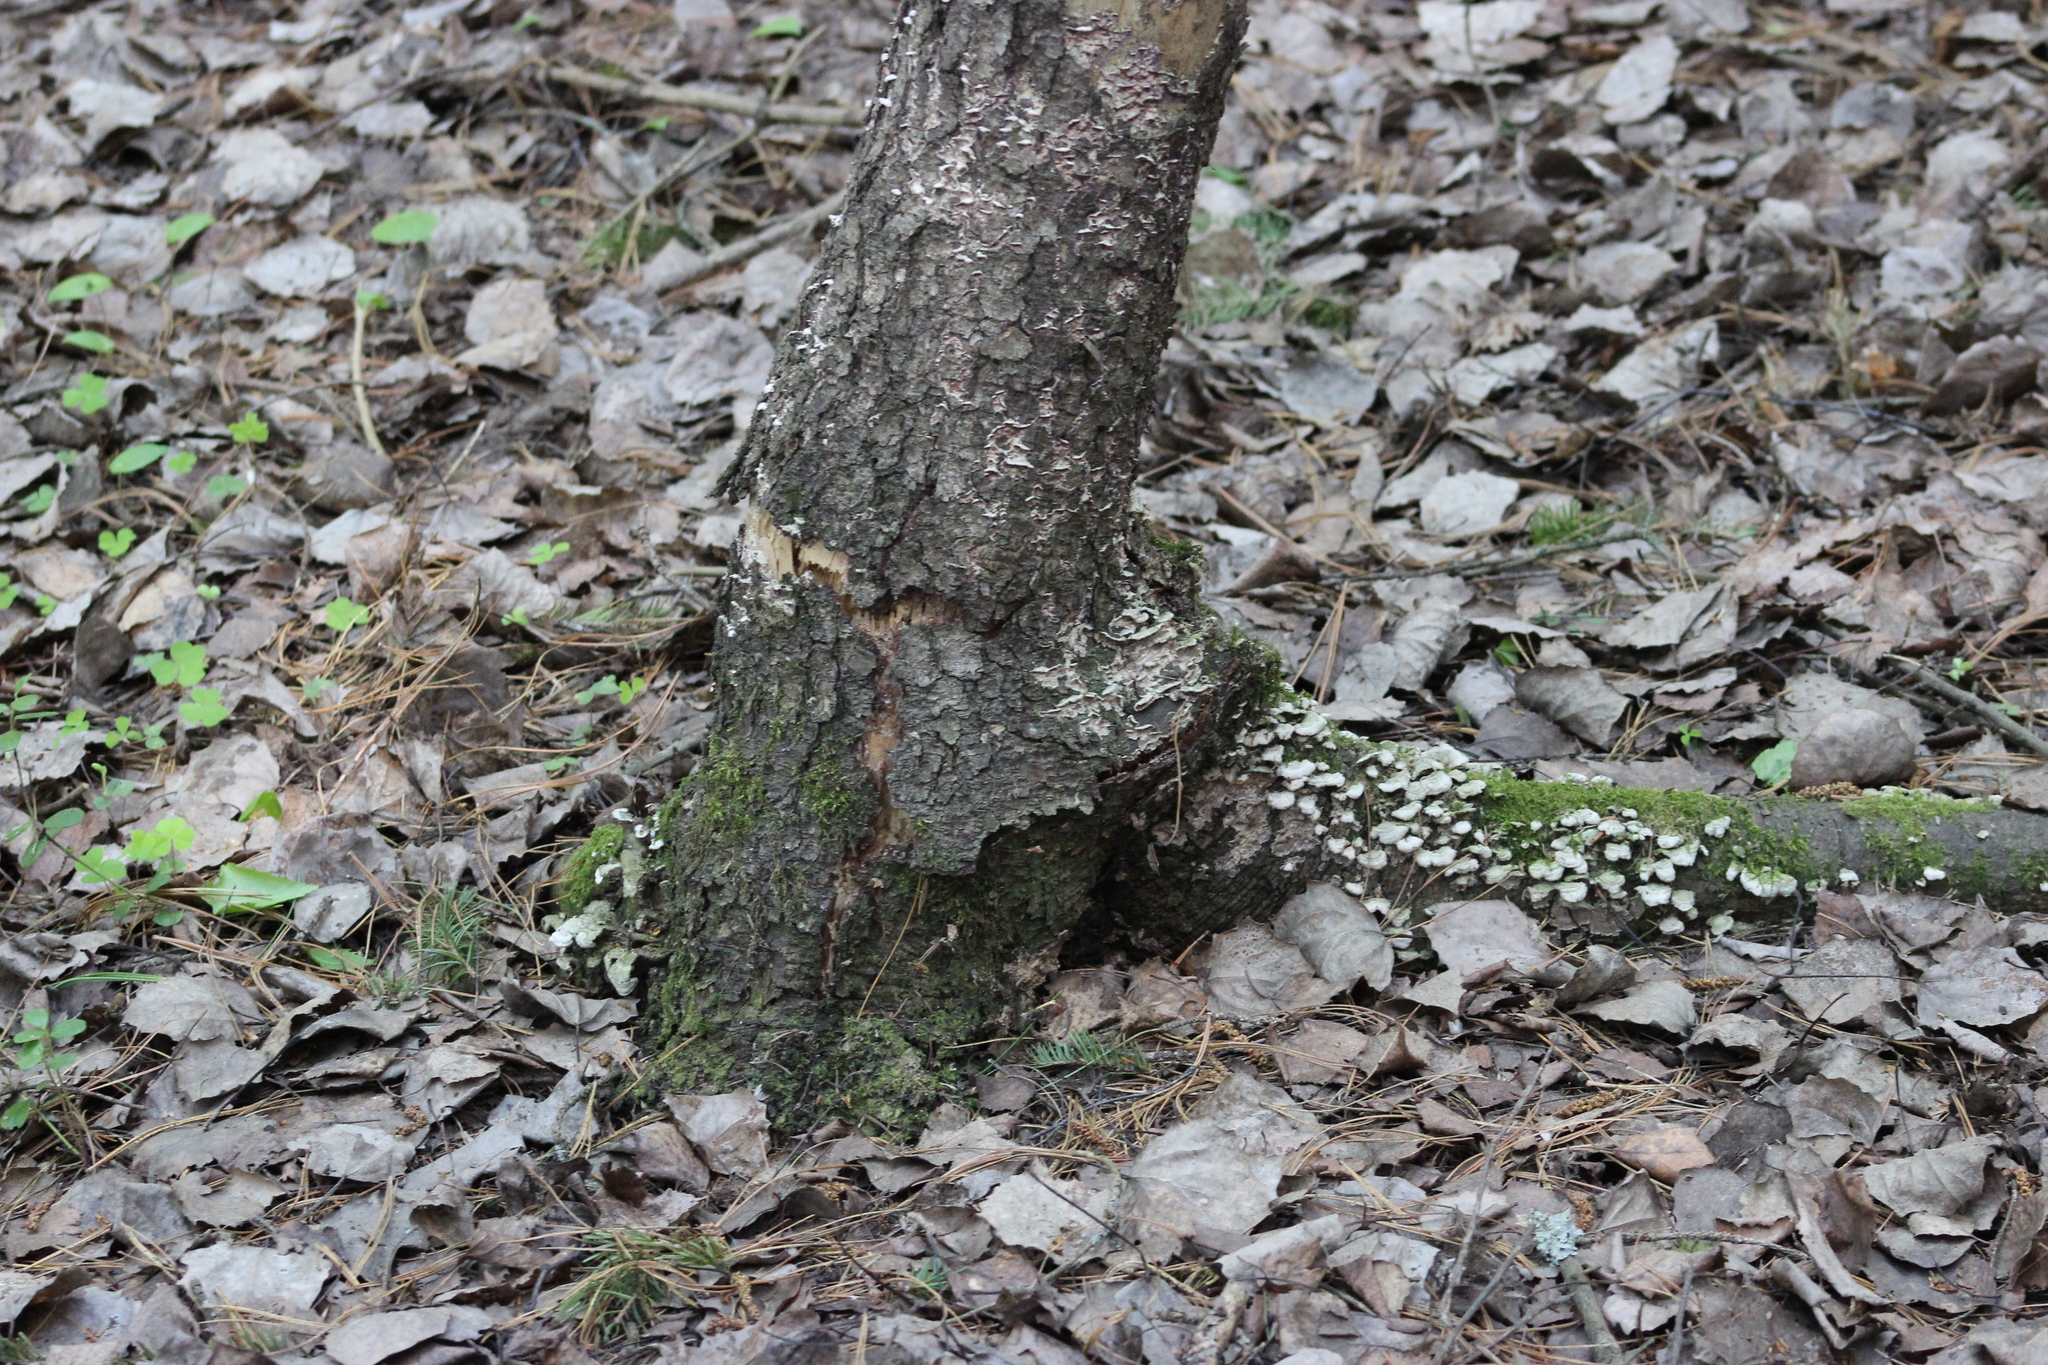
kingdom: Fungi
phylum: Basidiomycota
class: Agaricomycetes
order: Hymenochaetales
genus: Trichaptum
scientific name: Trichaptum abietinum
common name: Purplepore bracket
